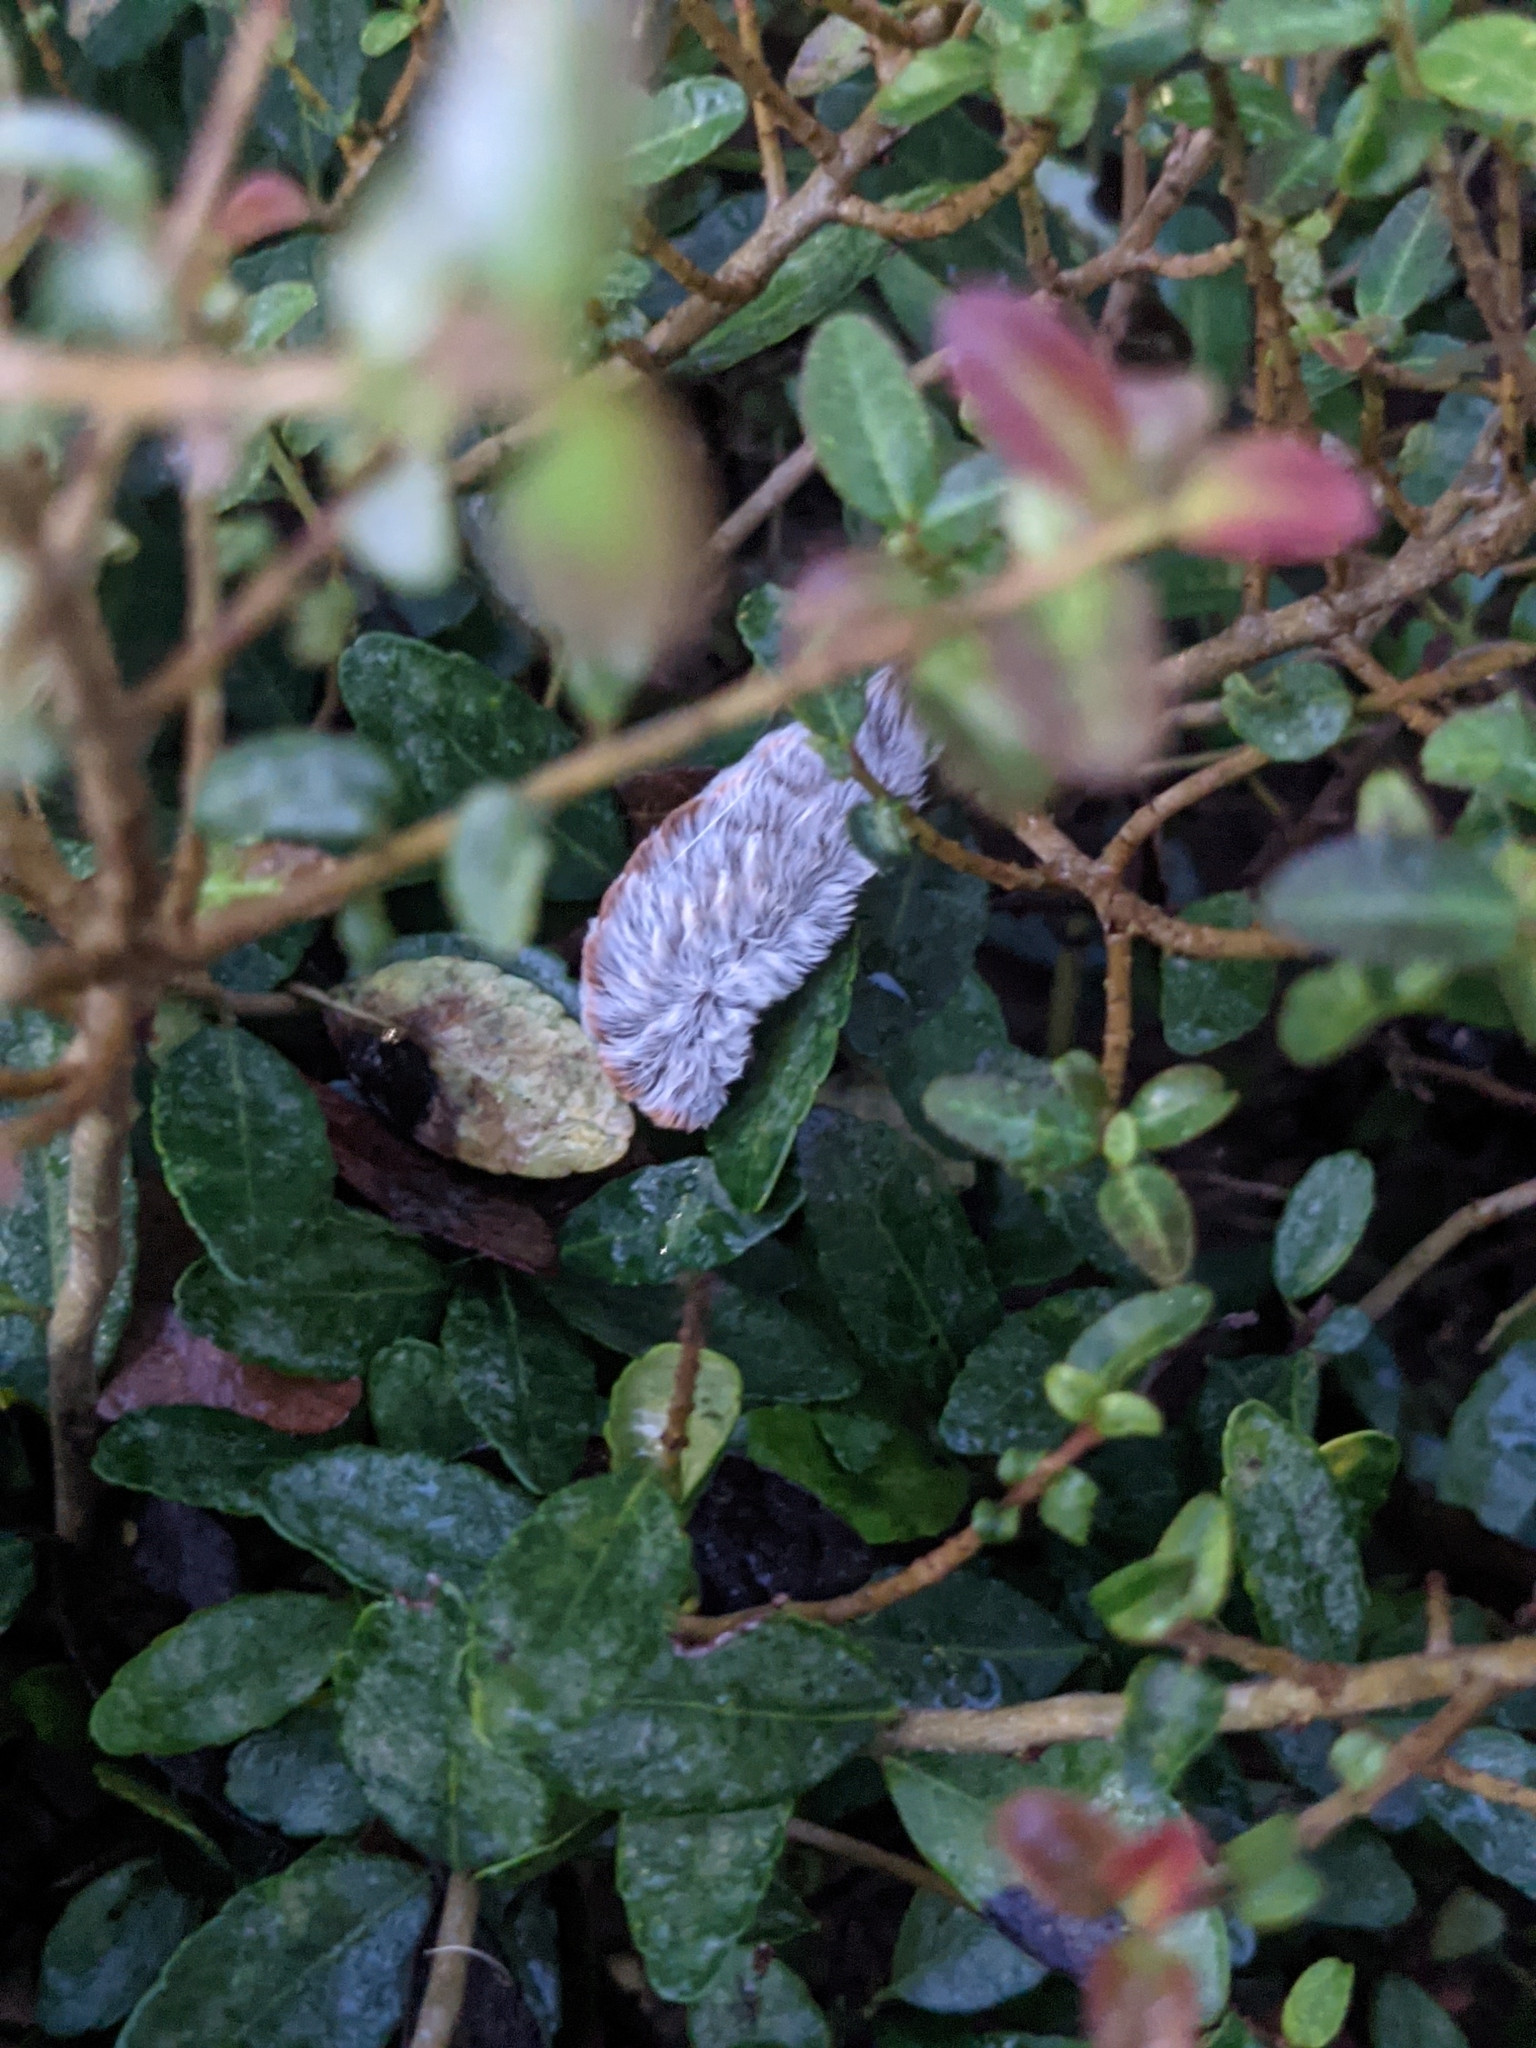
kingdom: Animalia
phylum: Arthropoda
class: Insecta
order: Lepidoptera
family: Megalopygidae
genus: Megalopyge
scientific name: Megalopyge opercularis
